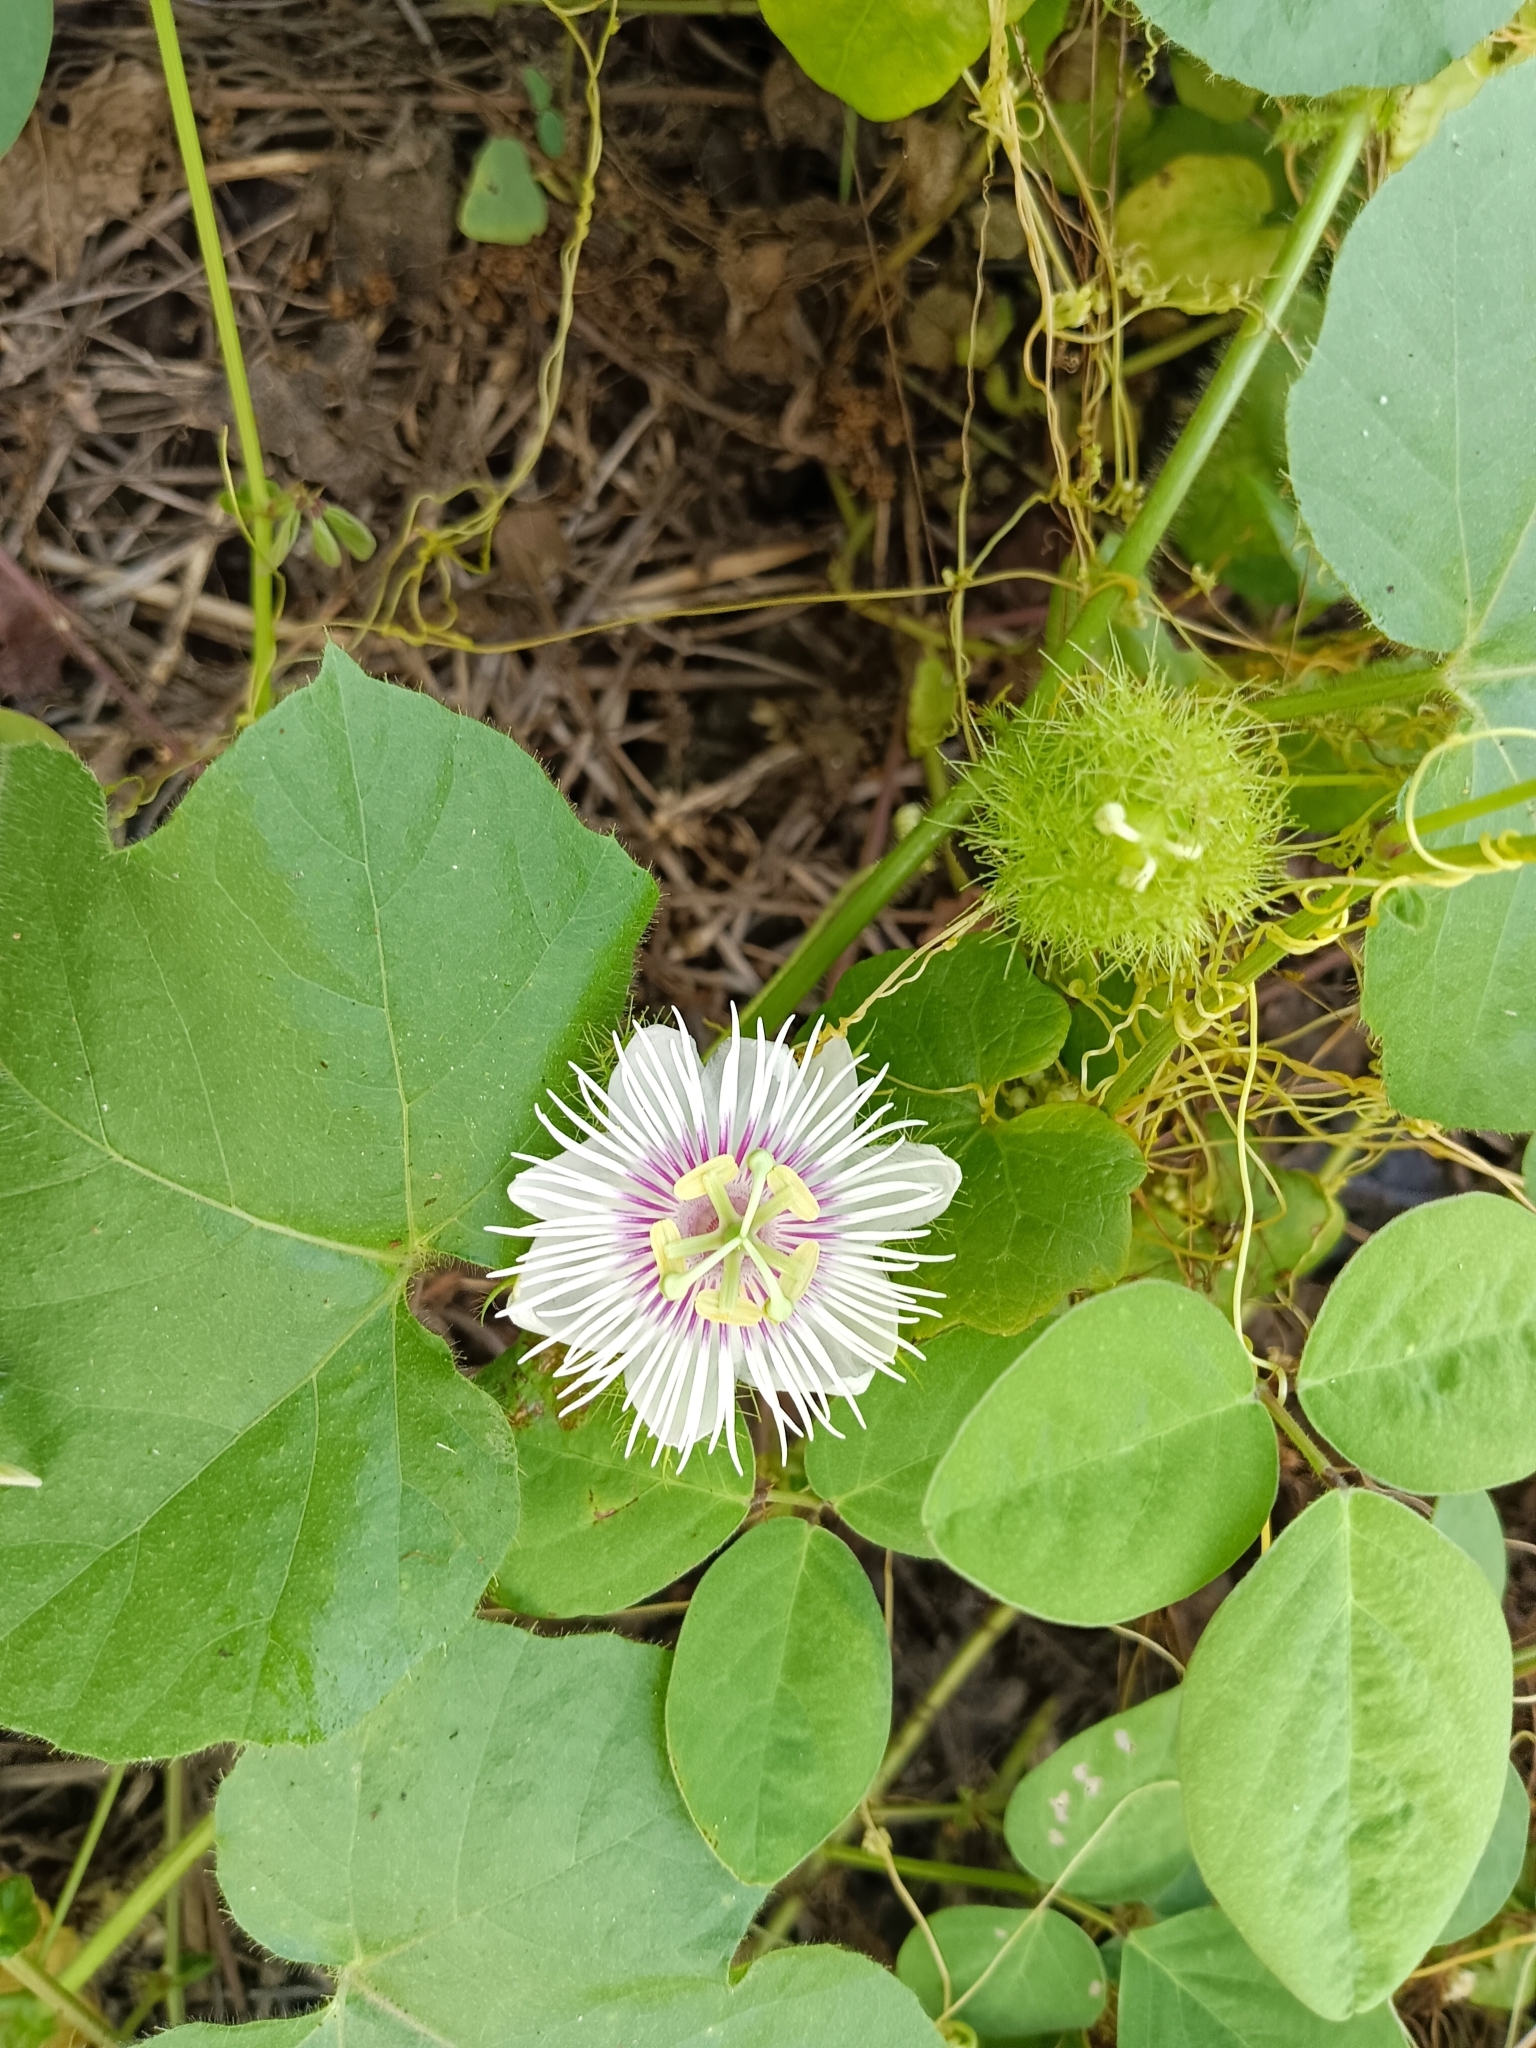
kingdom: Plantae
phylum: Tracheophyta
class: Magnoliopsida
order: Malpighiales
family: Passifloraceae
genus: Passiflora
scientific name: Passiflora vesicaria
